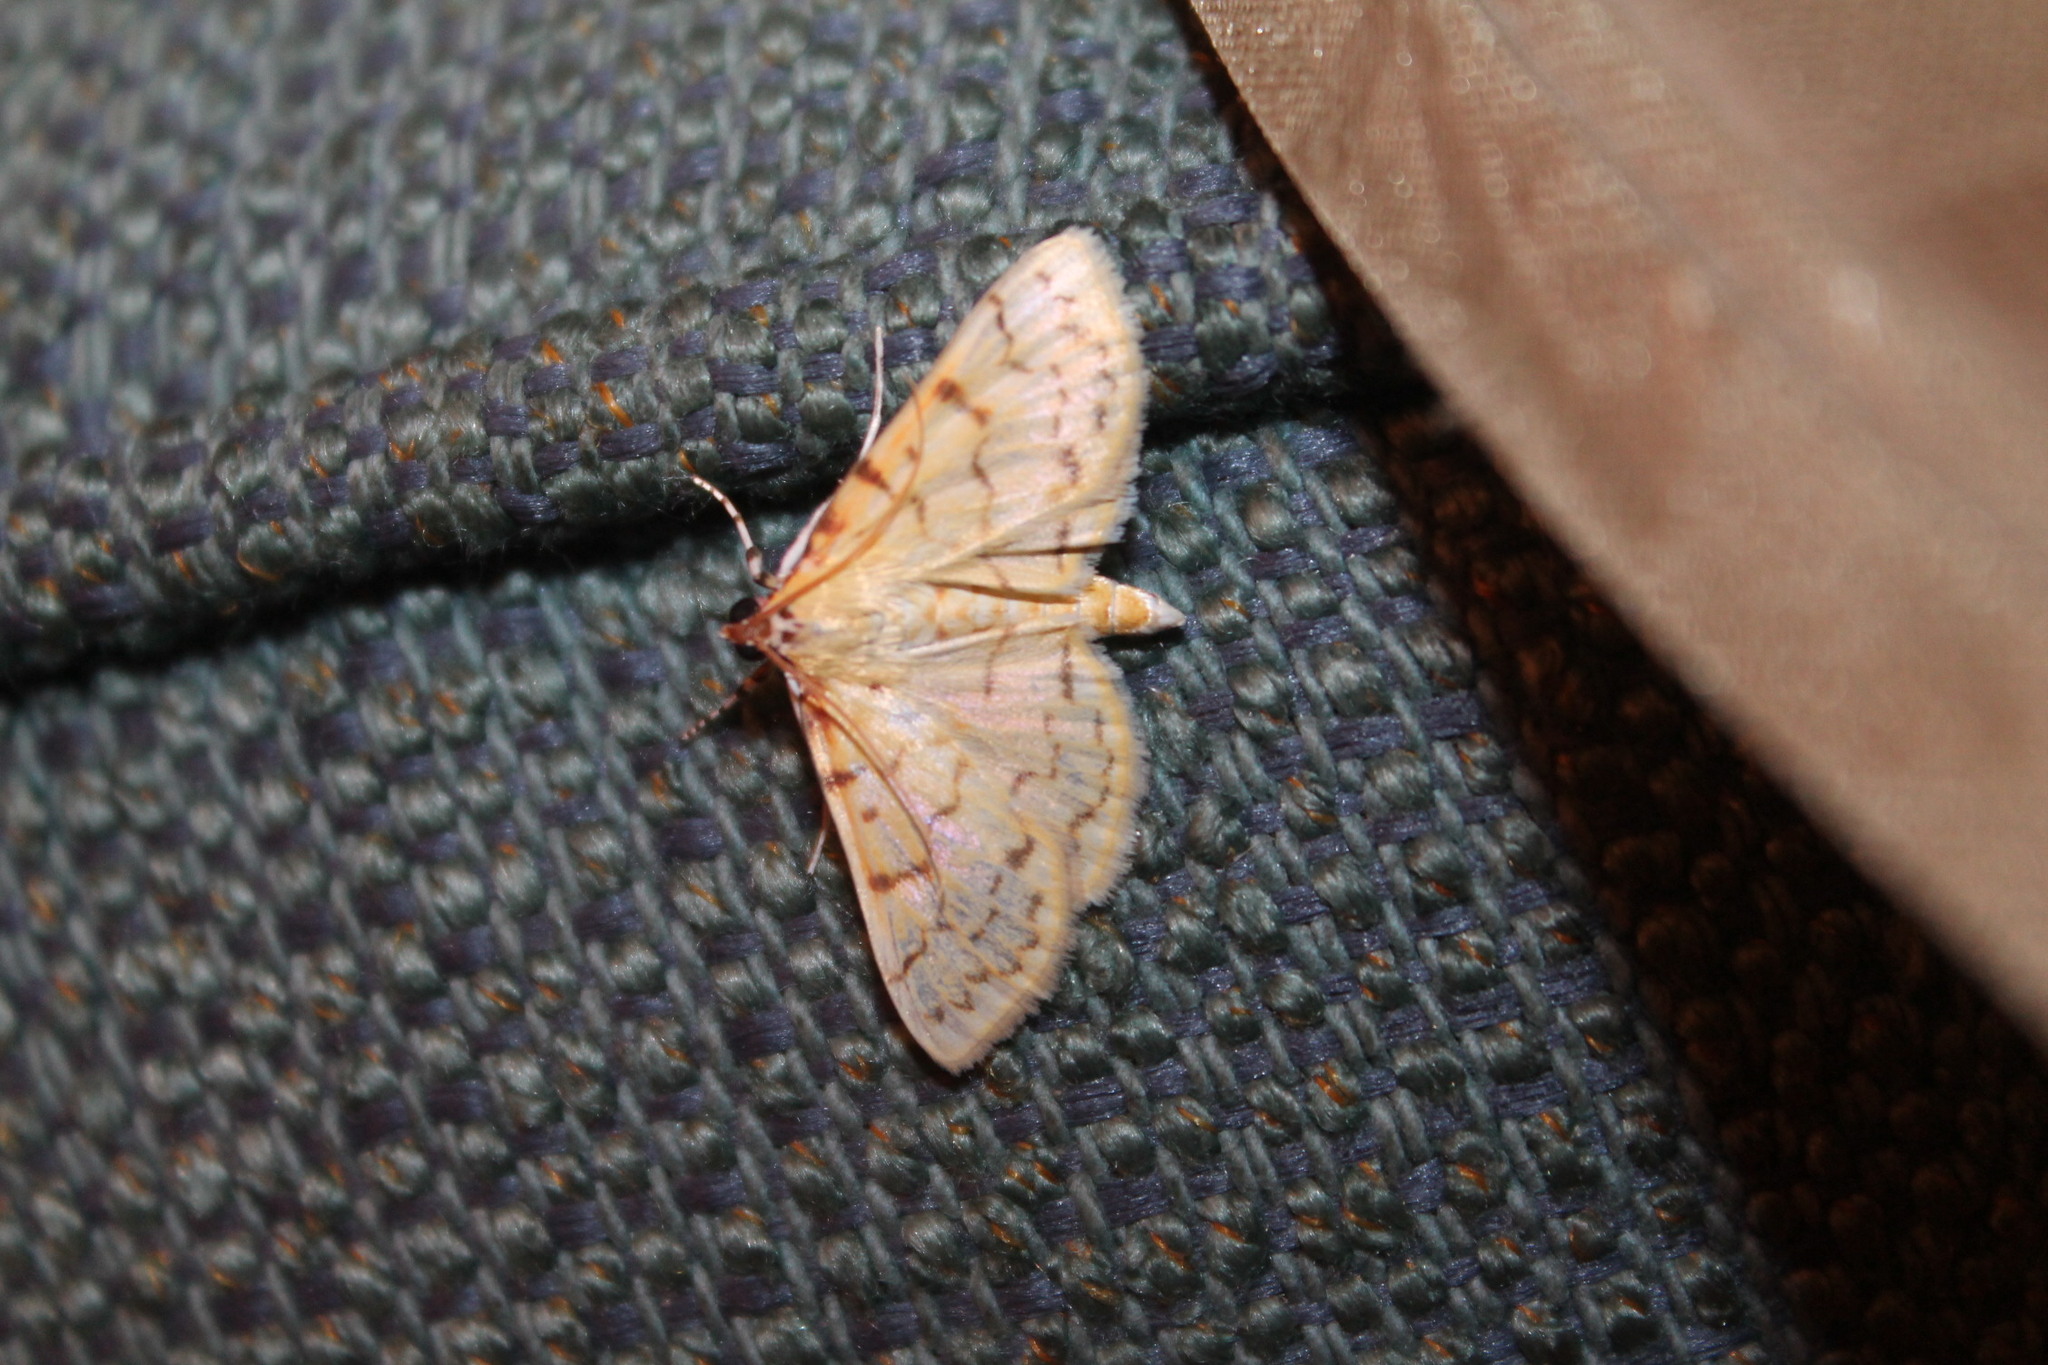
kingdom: Animalia
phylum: Arthropoda
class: Insecta
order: Lepidoptera
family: Crambidae
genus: Polygrammodes
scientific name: Polygrammodes flavidalis
